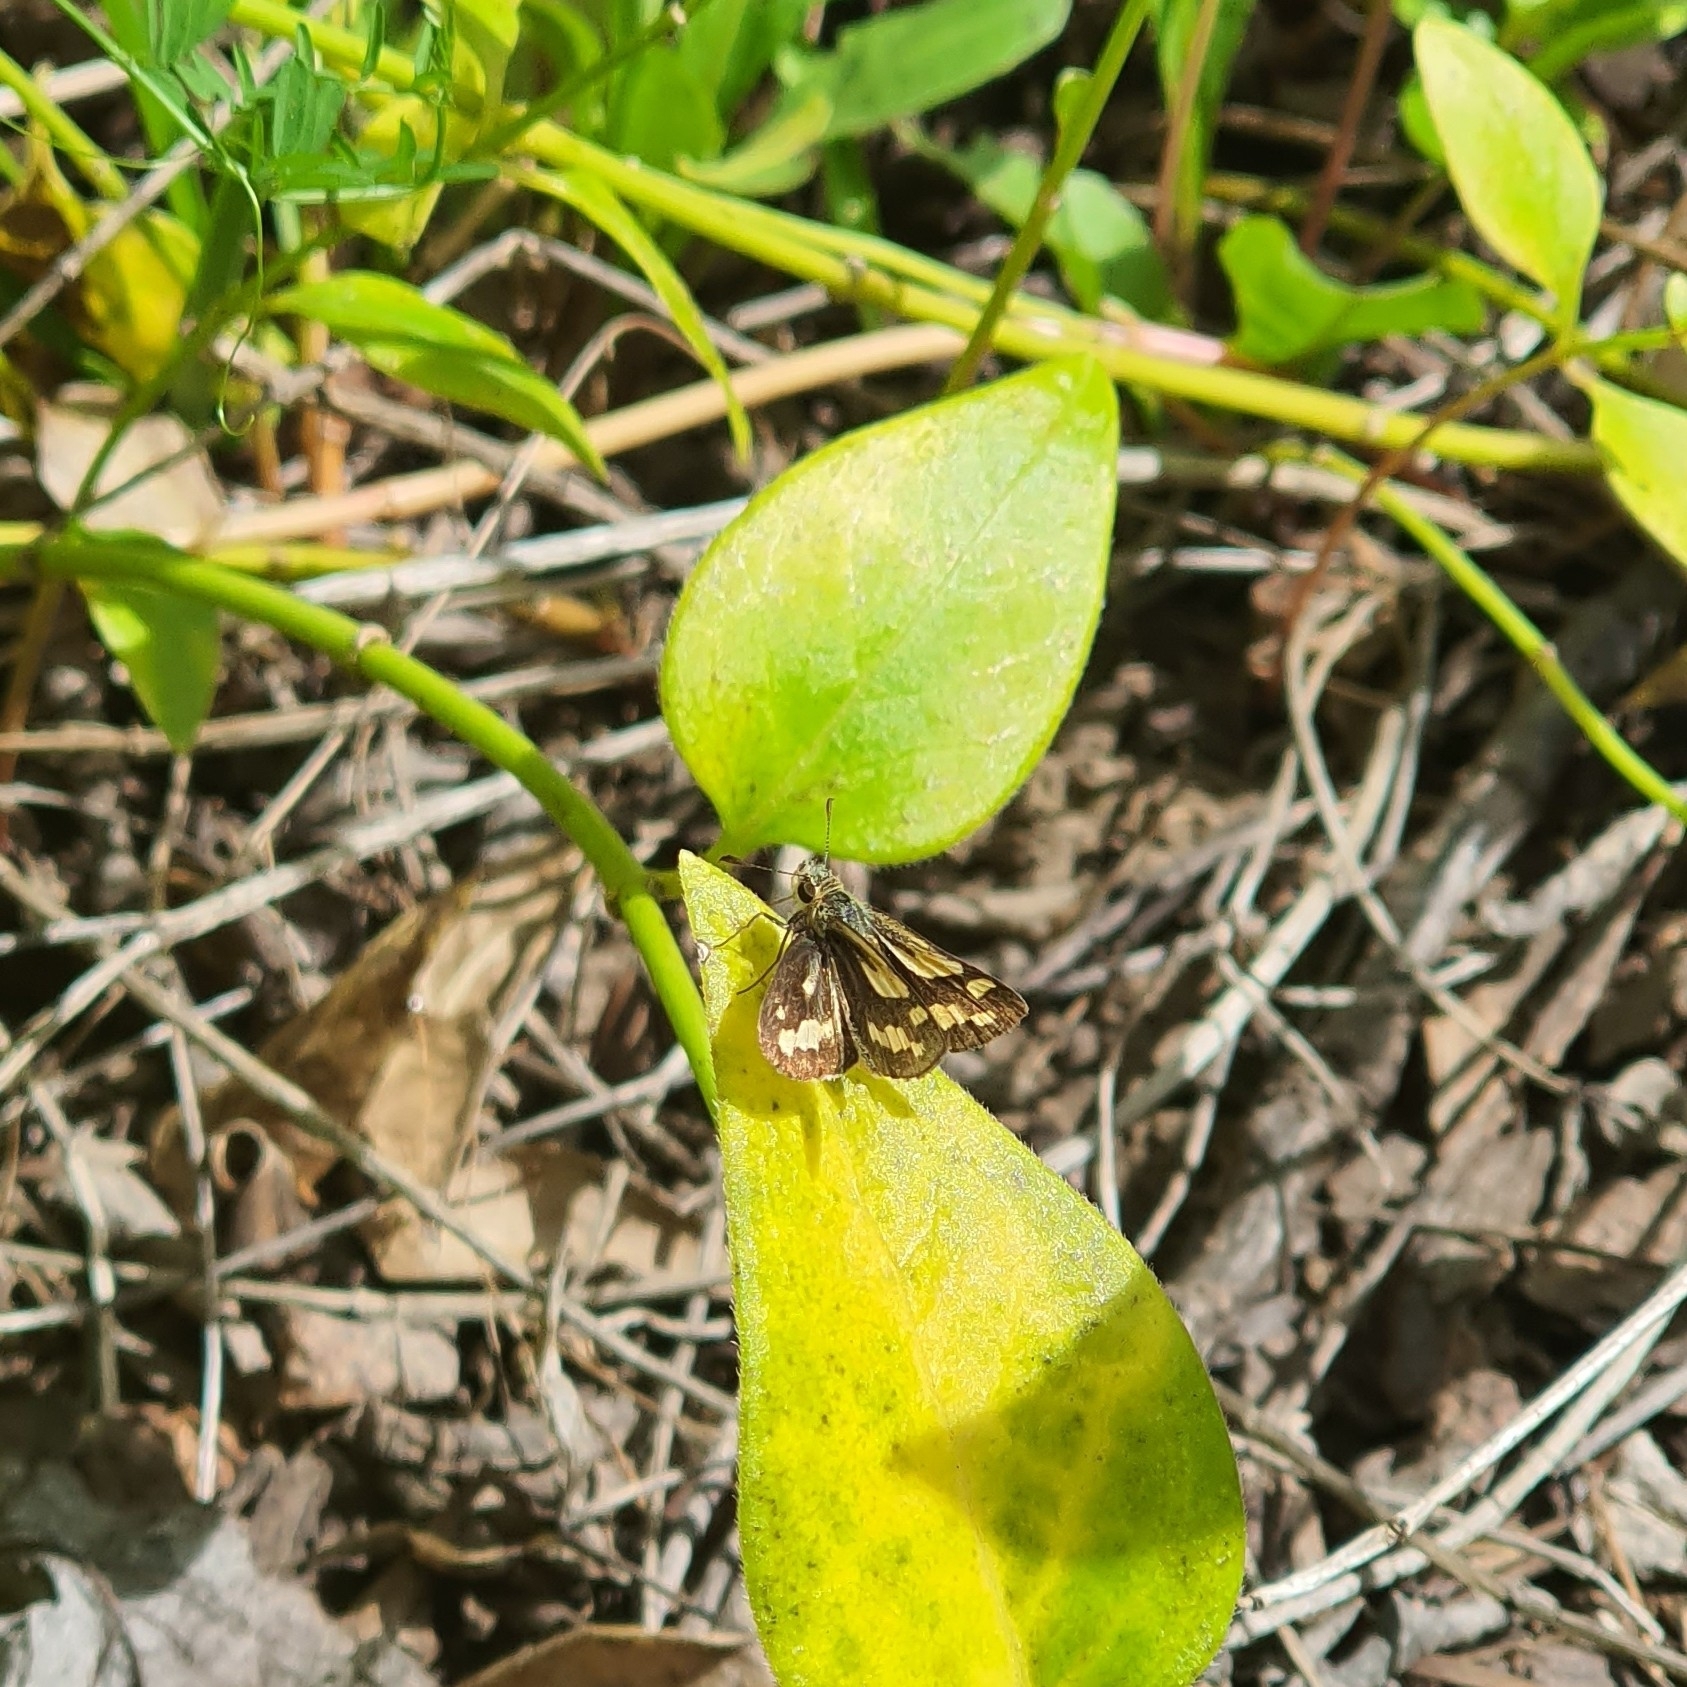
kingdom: Animalia
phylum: Arthropoda
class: Insecta
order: Lepidoptera
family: Hesperiidae
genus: Ocybadistes
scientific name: Ocybadistes walkeri
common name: Yellow-banded dart
